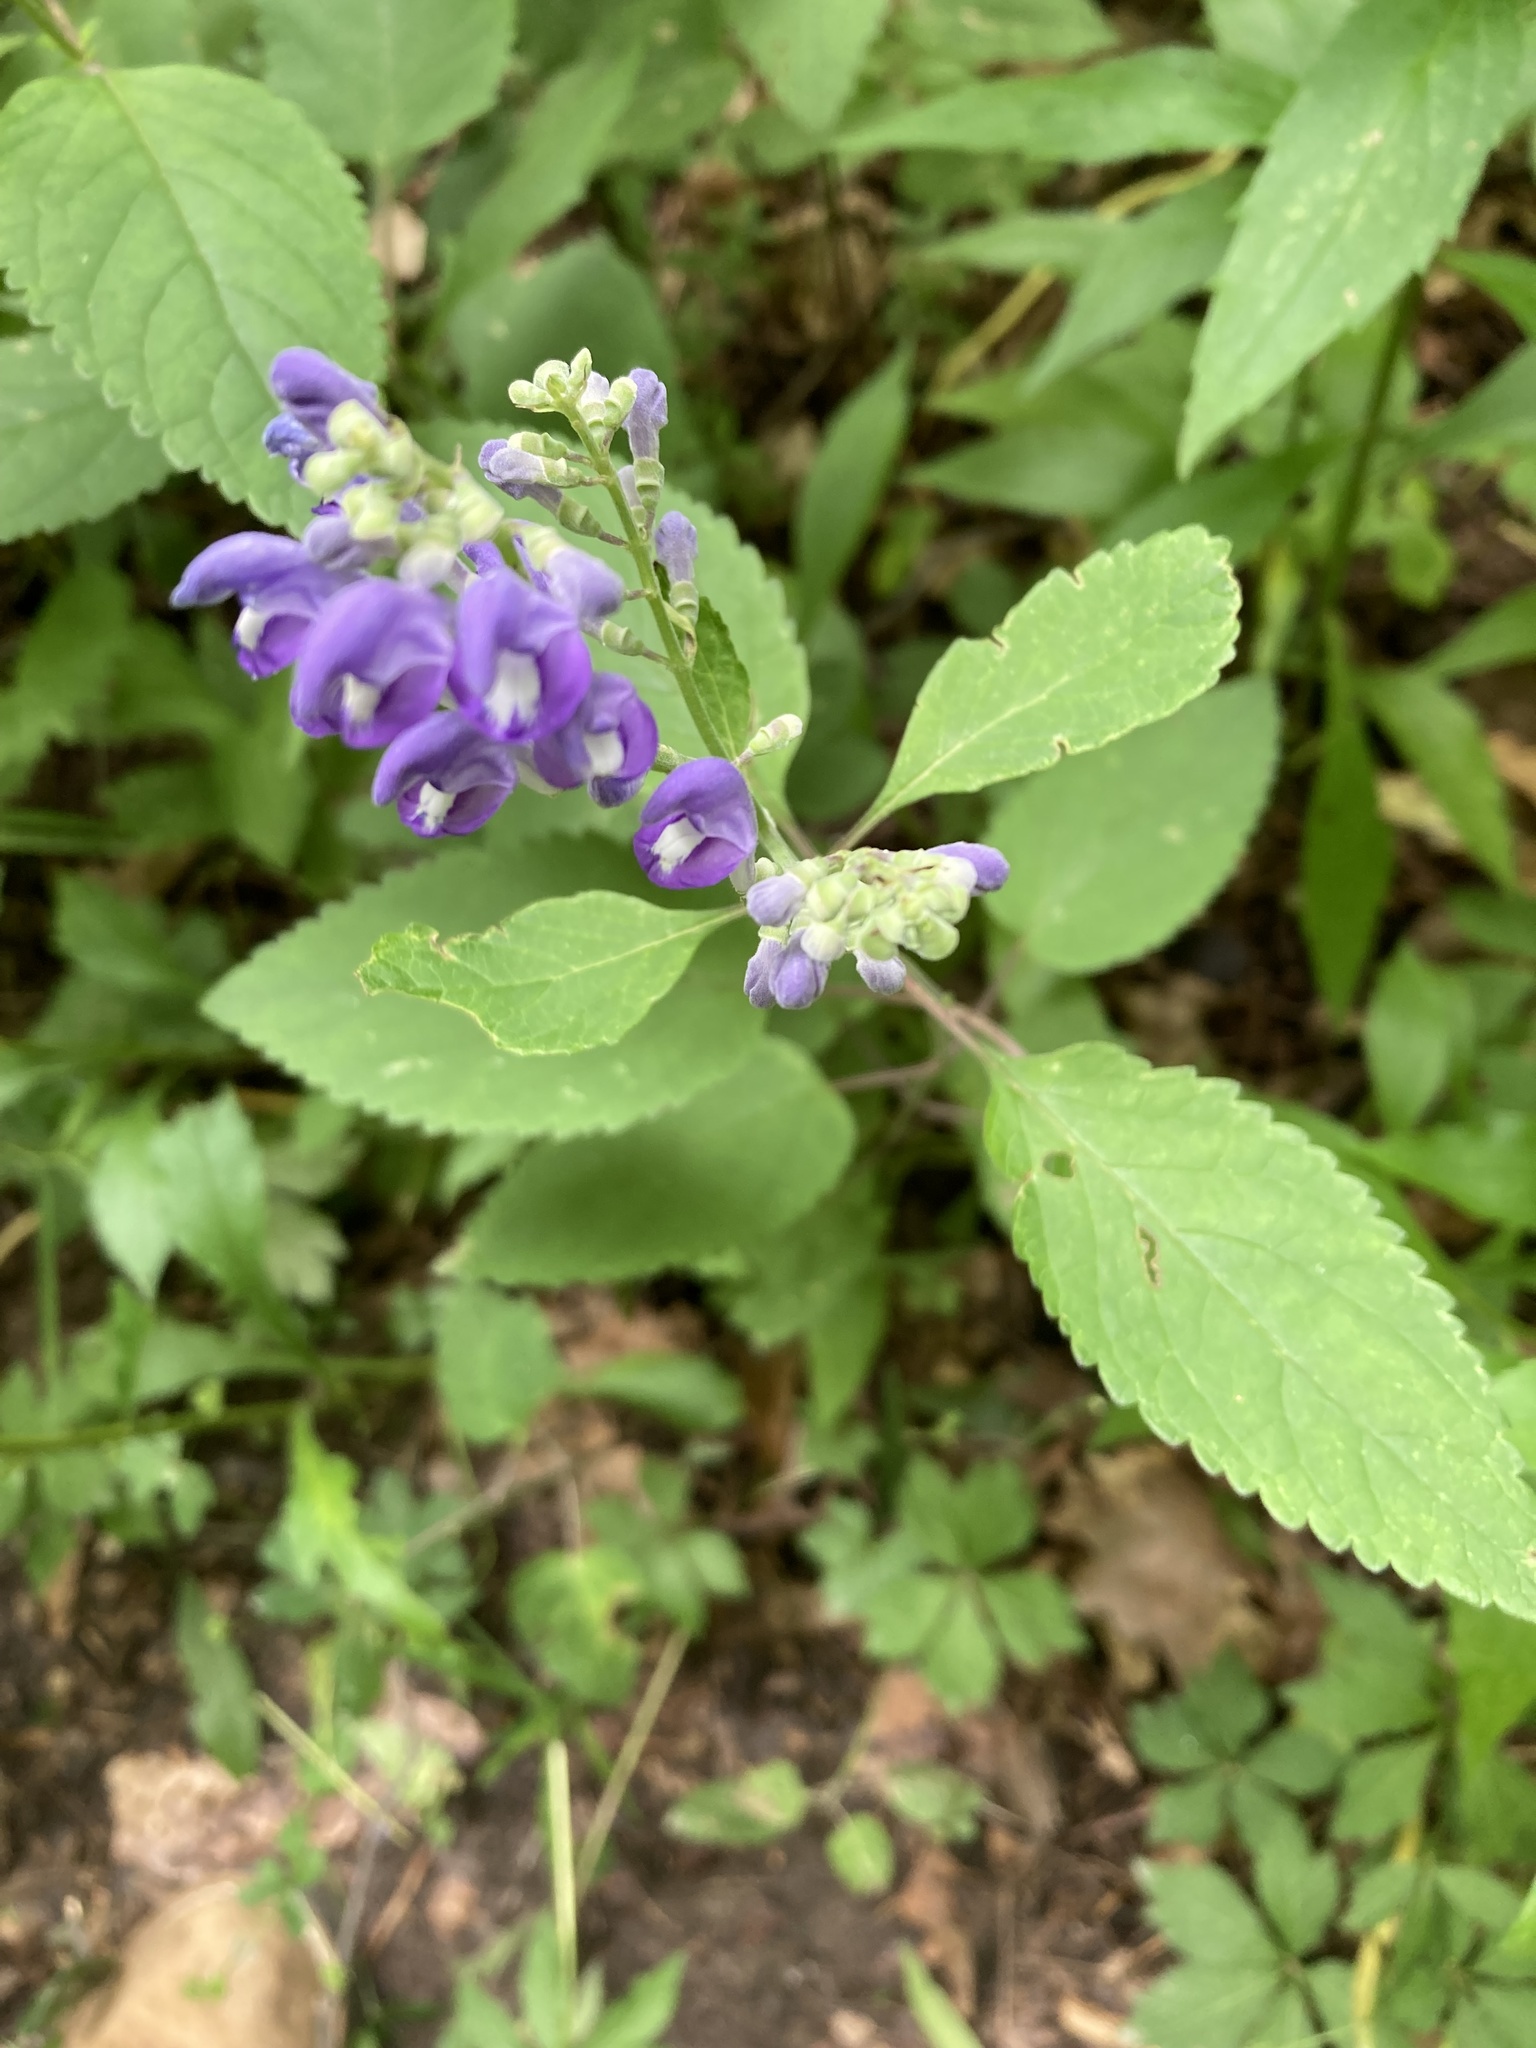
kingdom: Plantae
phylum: Tracheophyta
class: Magnoliopsida
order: Lamiales
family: Lamiaceae
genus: Scutellaria
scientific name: Scutellaria incana
